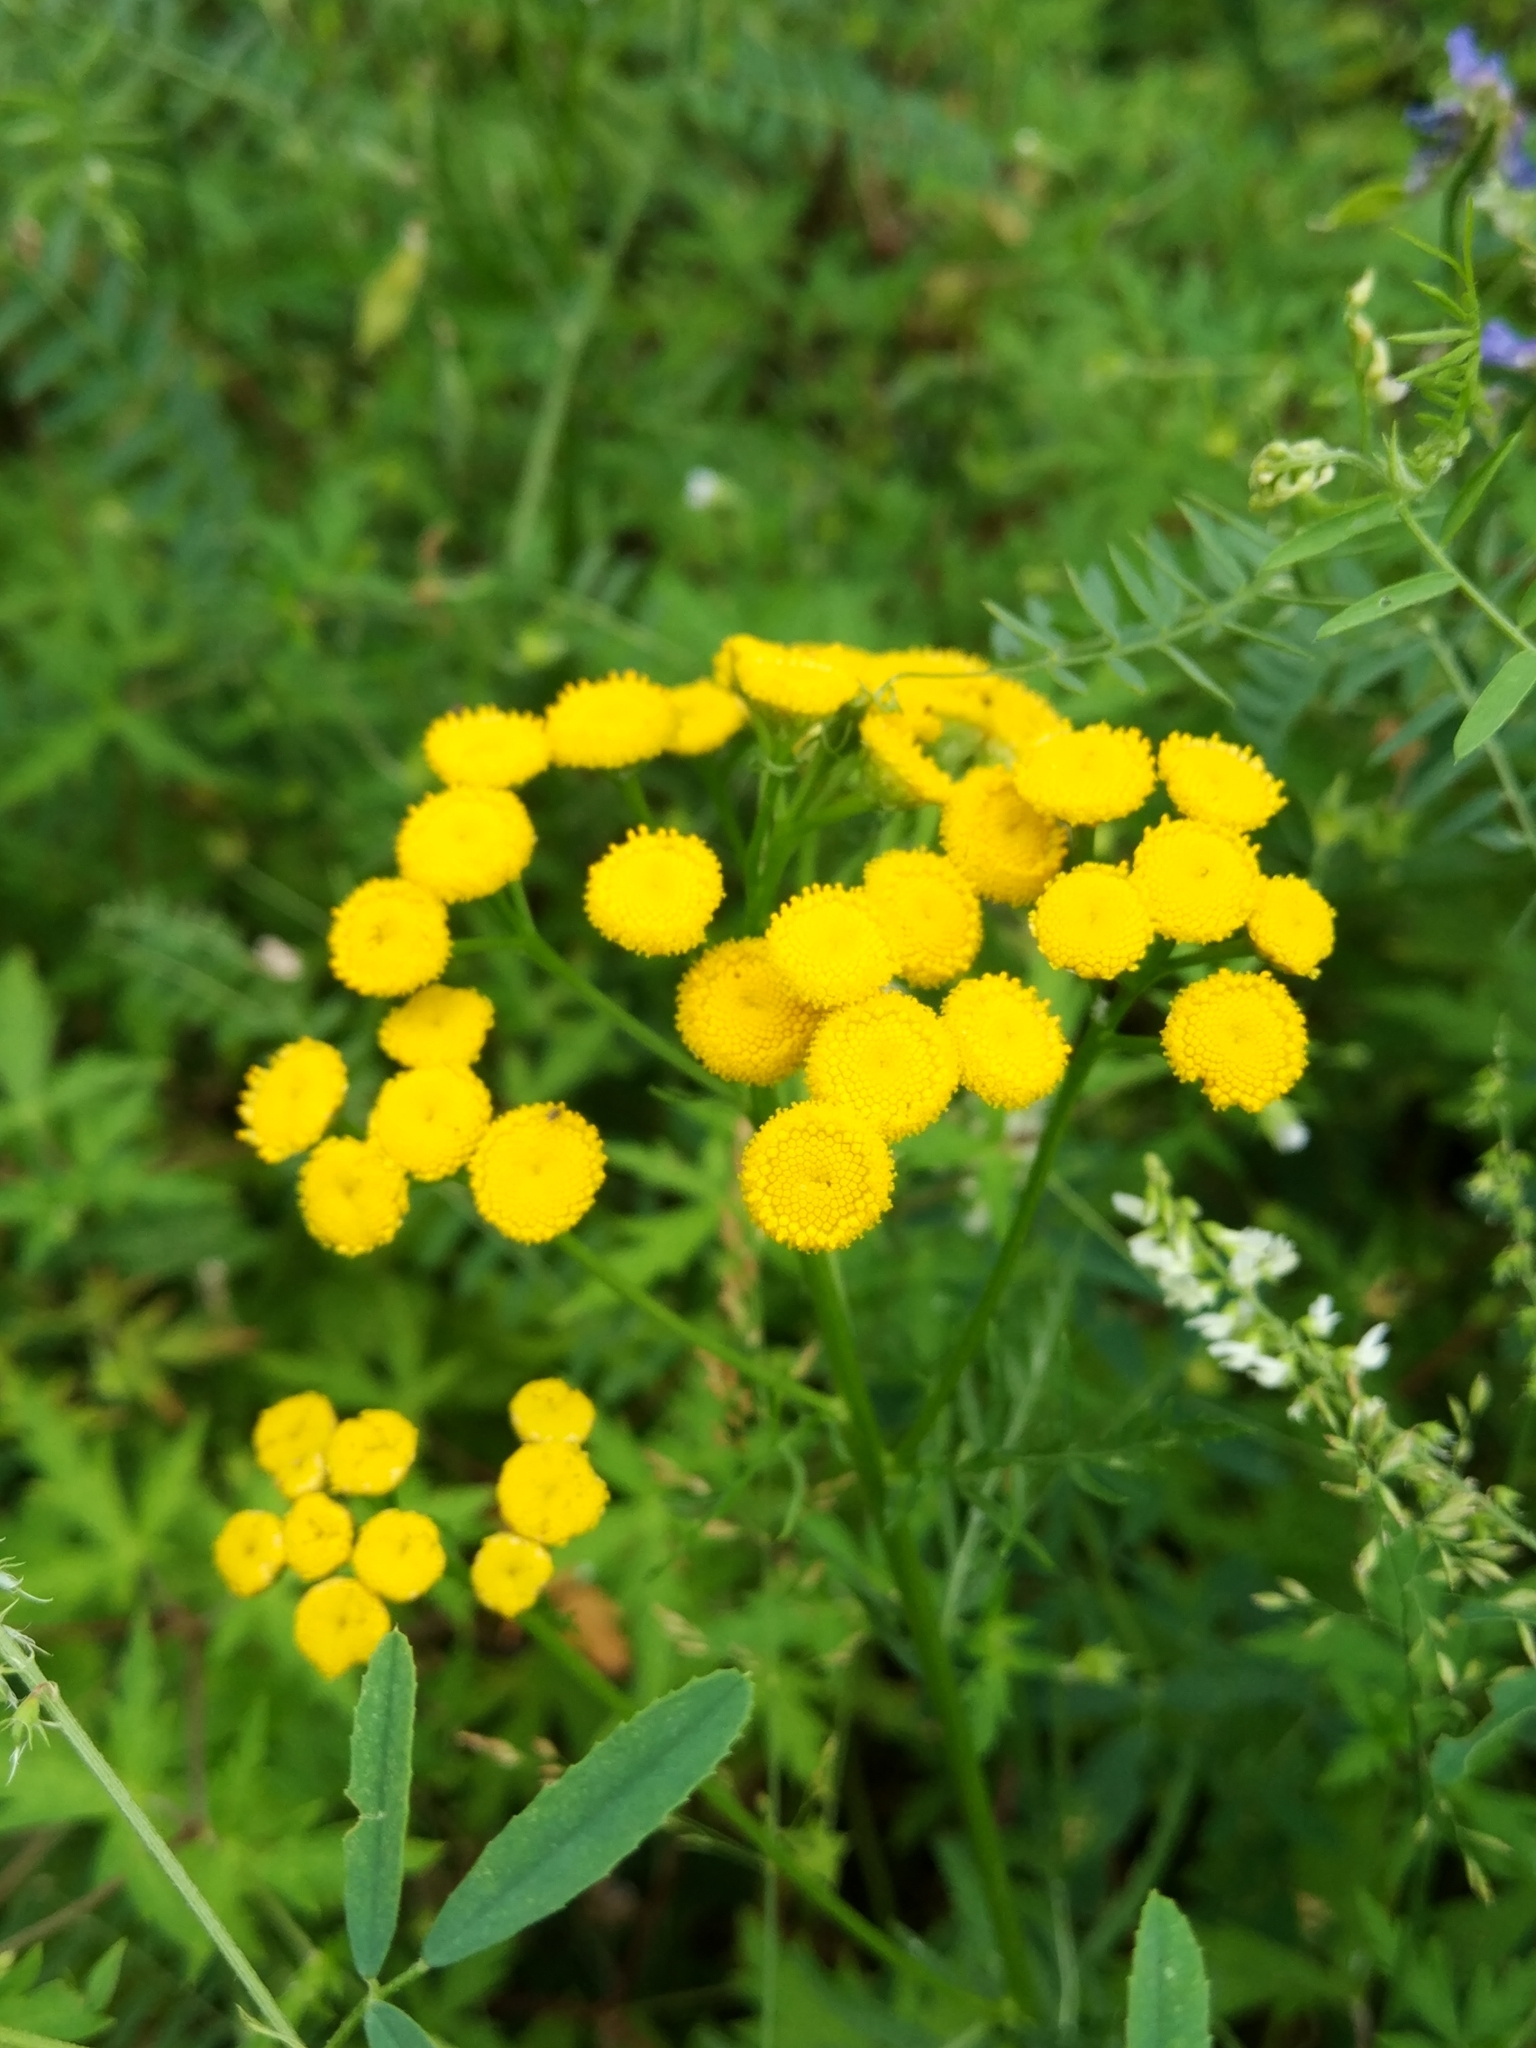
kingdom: Plantae
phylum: Tracheophyta
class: Magnoliopsida
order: Asterales
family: Asteraceae
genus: Tanacetum
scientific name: Tanacetum vulgare
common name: Common tansy
